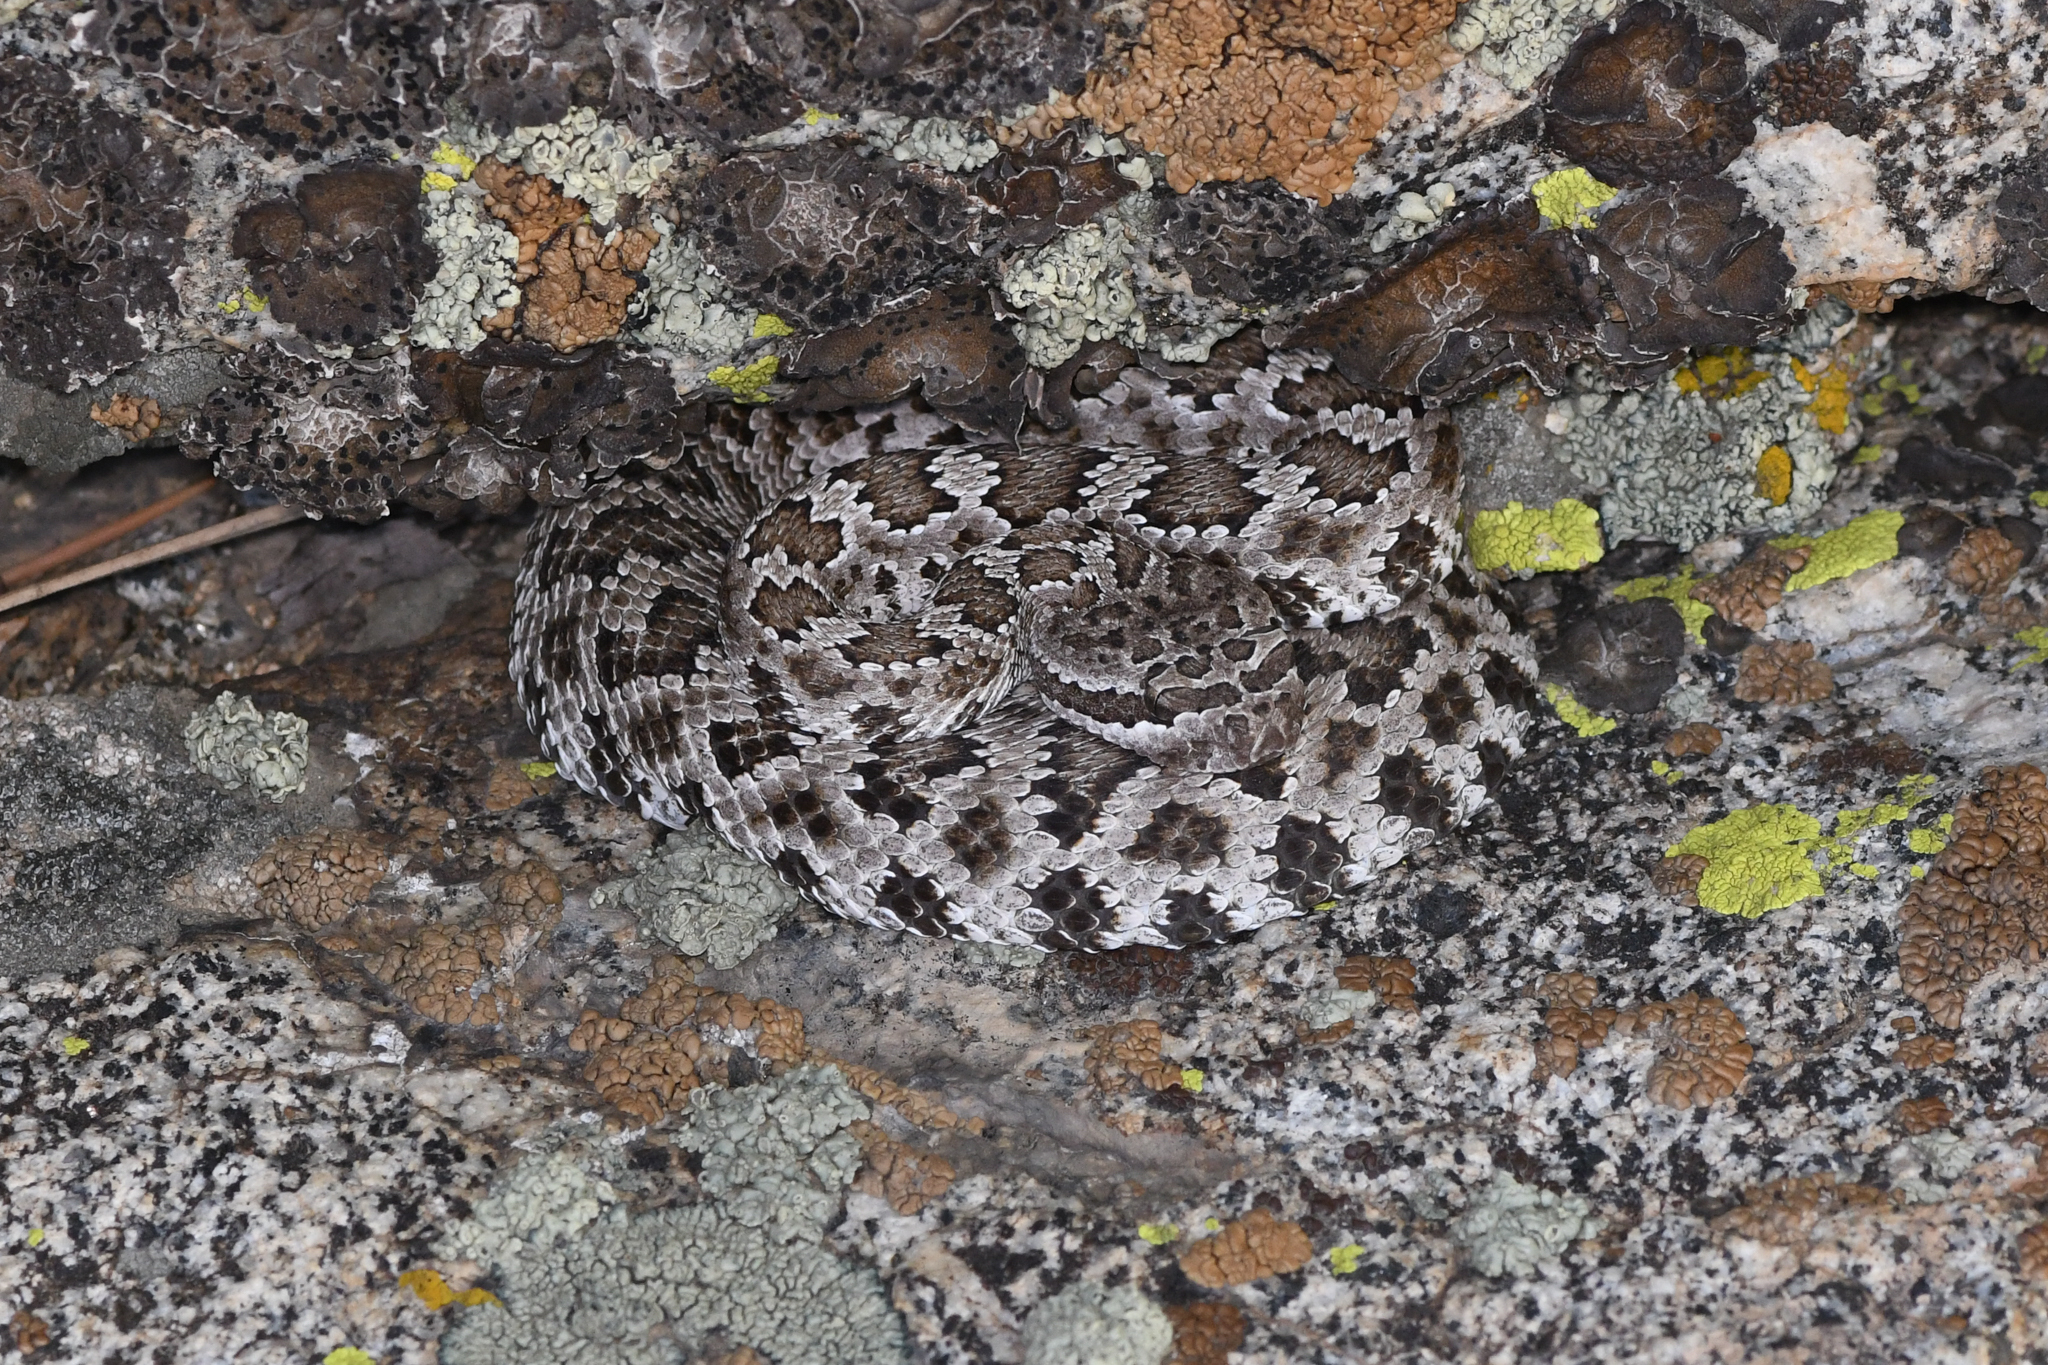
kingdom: Animalia
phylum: Chordata
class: Squamata
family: Viperidae
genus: Crotalus
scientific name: Crotalus oreganus
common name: Abyssus
